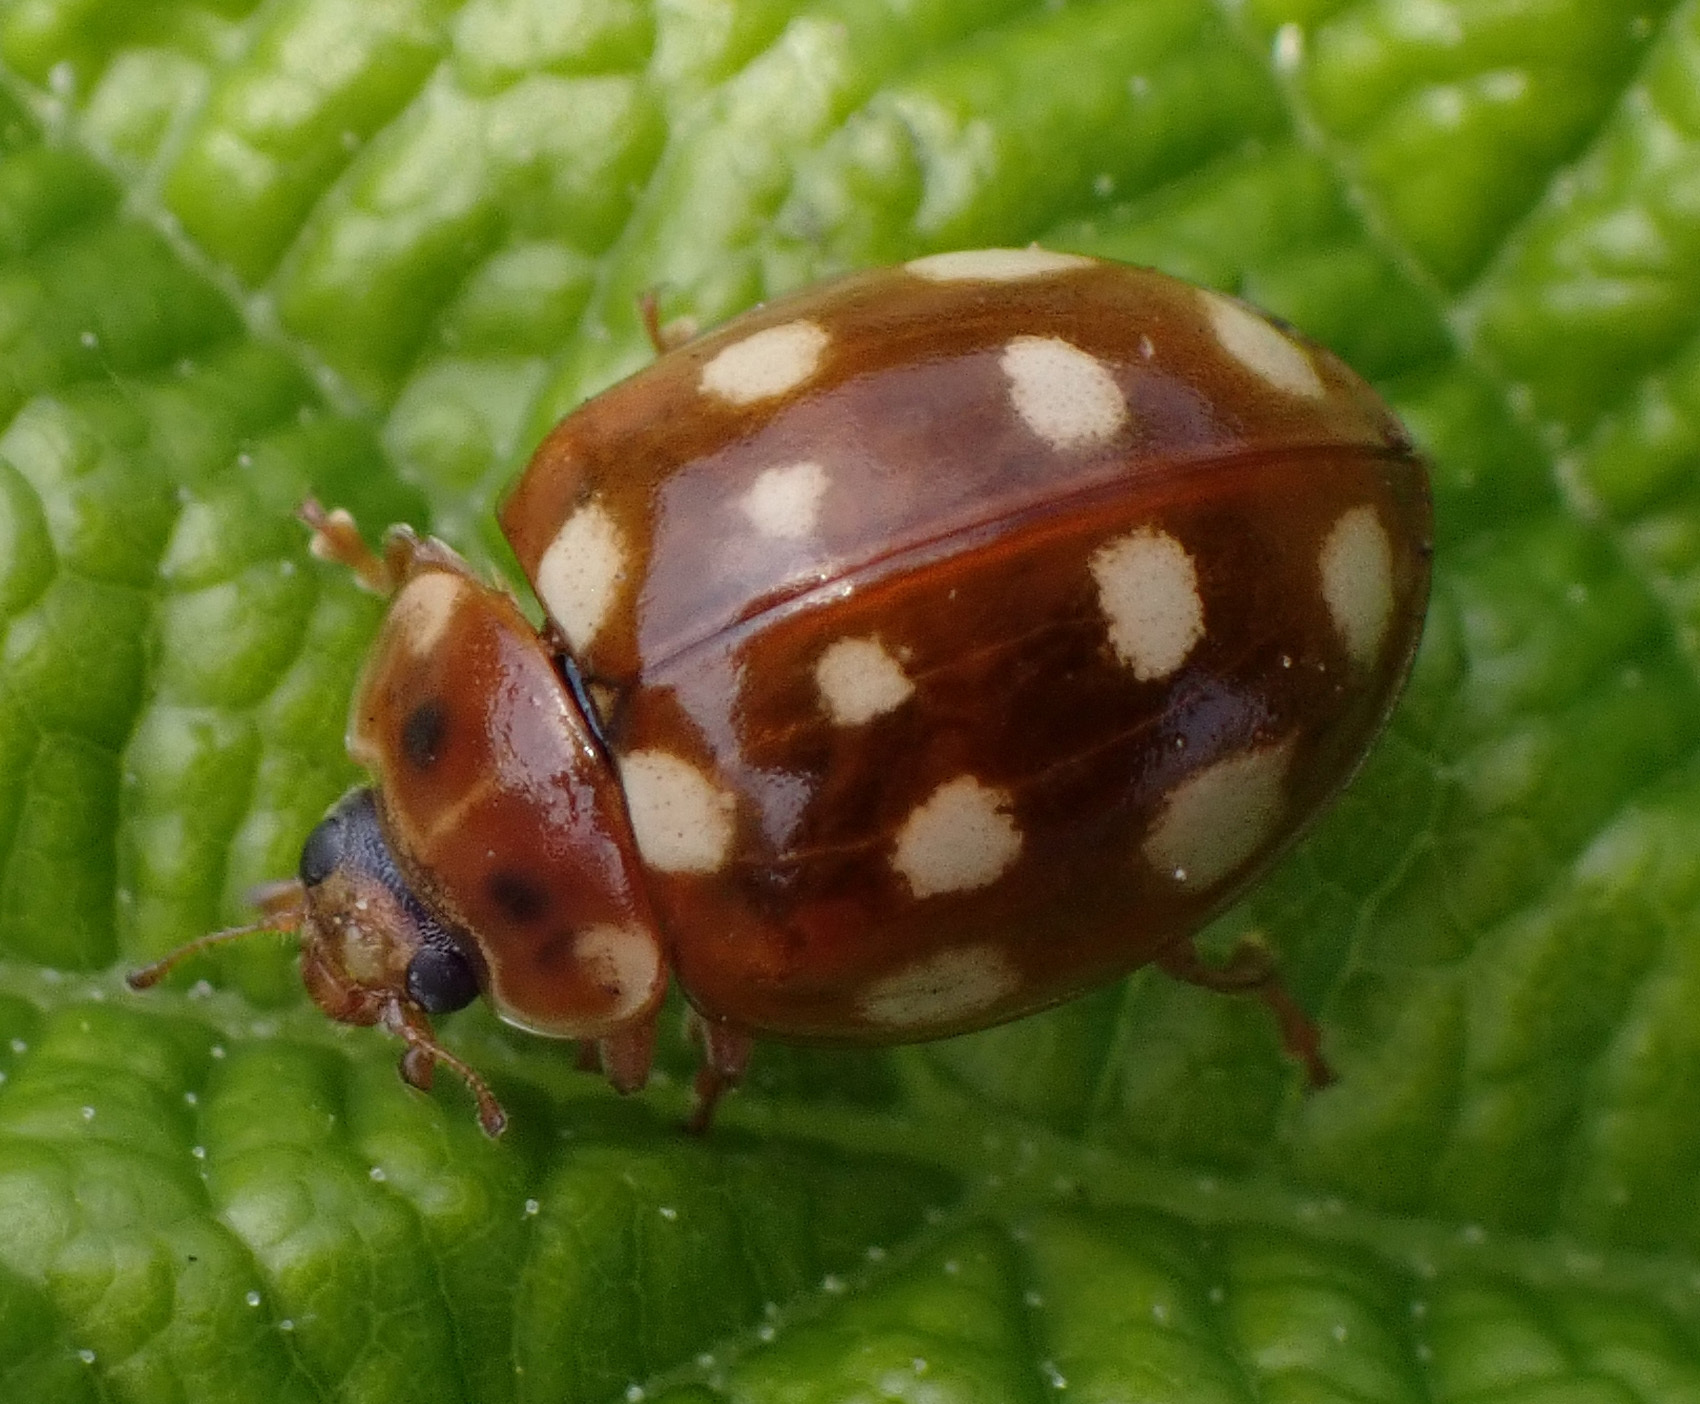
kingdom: Animalia
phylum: Arthropoda
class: Insecta
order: Coleoptera
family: Coccinellidae
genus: Calvia
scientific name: Calvia quatuordecimguttata
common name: Cream-spot ladybird
